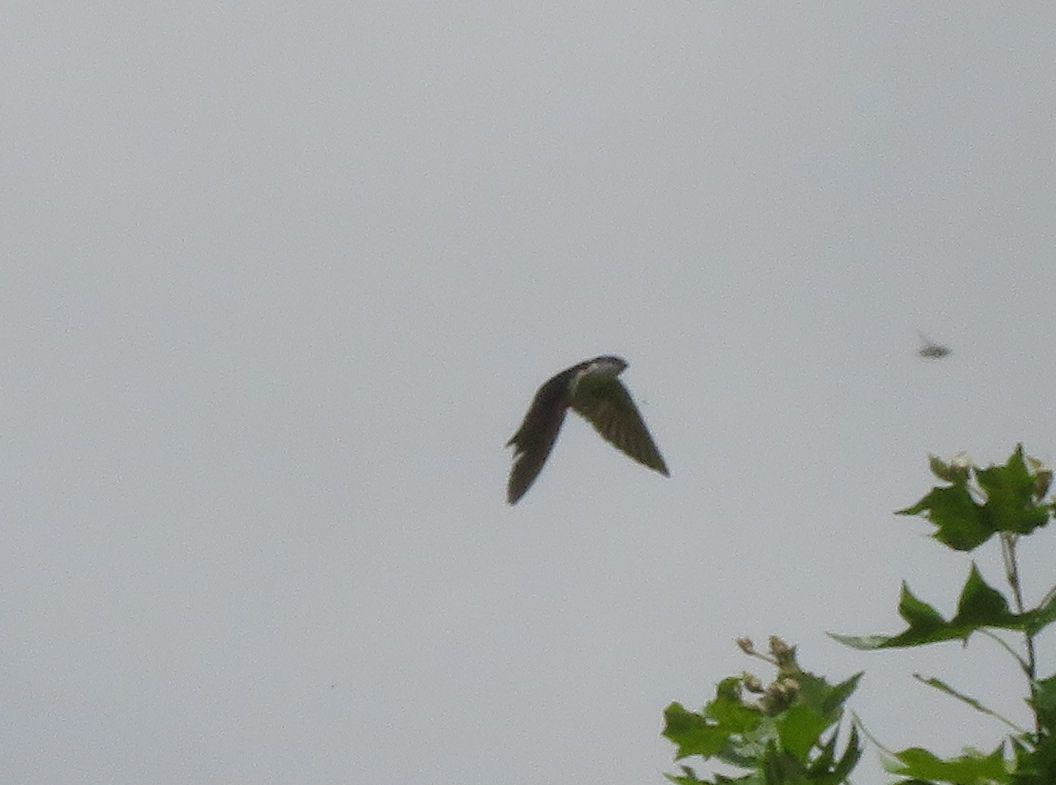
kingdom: Animalia
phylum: Chordata
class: Aves
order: Passeriformes
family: Hirundinidae
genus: Tachycineta
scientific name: Tachycineta leucorrhoa
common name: White-rumped swallow
